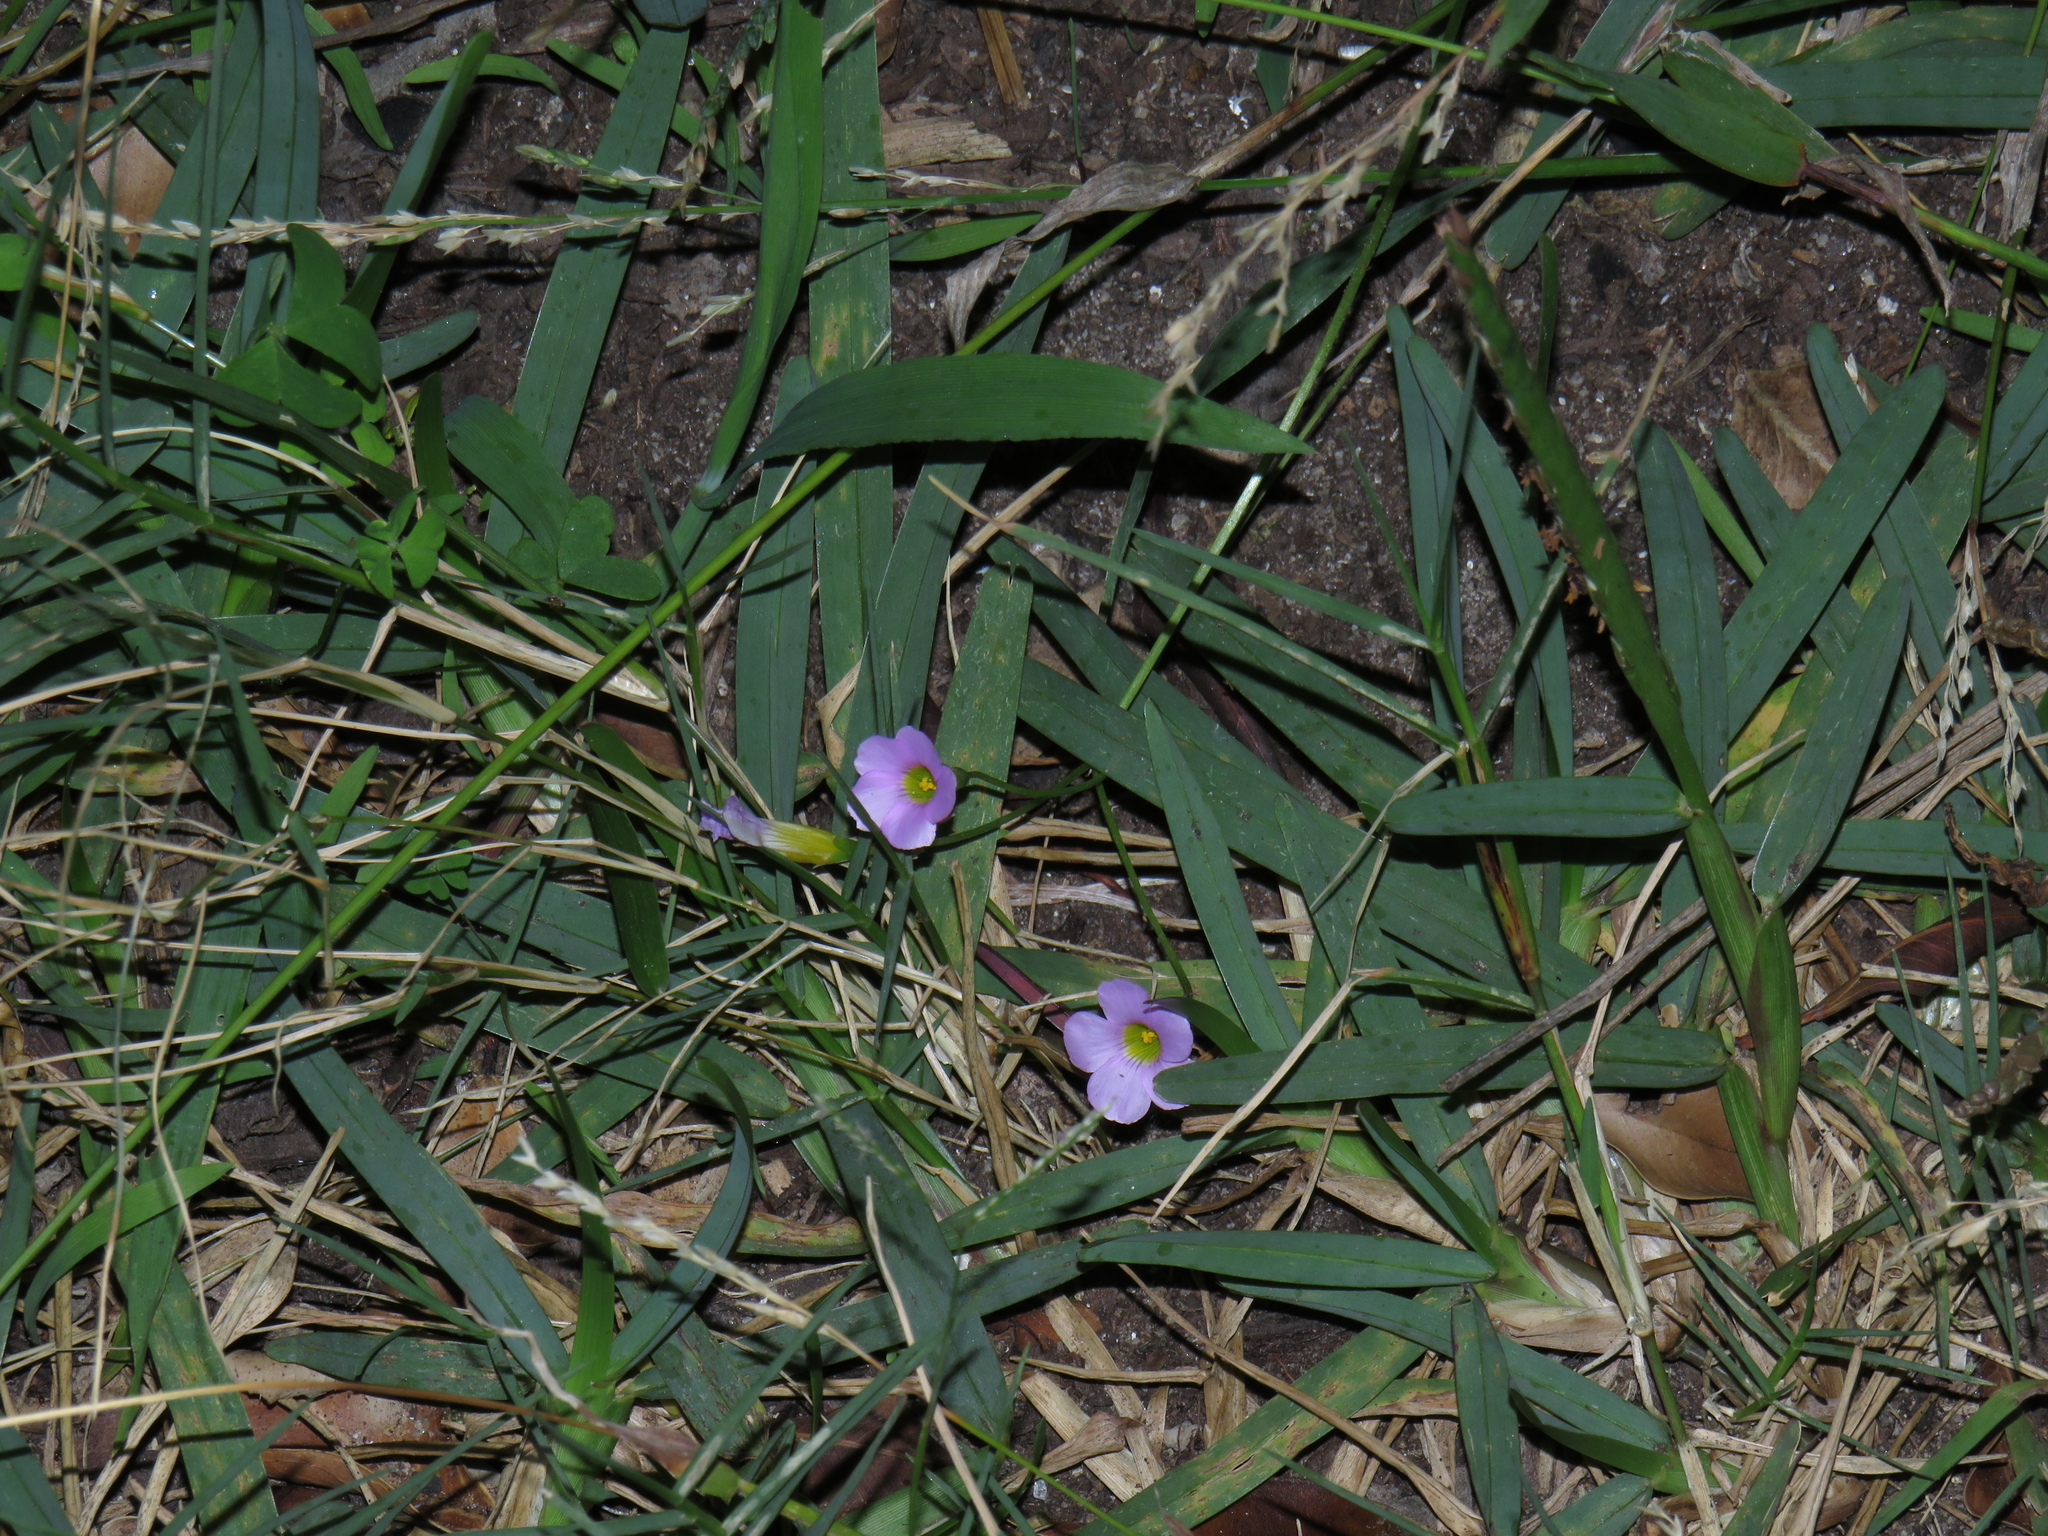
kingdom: Plantae
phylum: Tracheophyta
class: Magnoliopsida
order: Oxalidales
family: Oxalidaceae
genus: Oxalis
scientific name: Oxalis caprina
